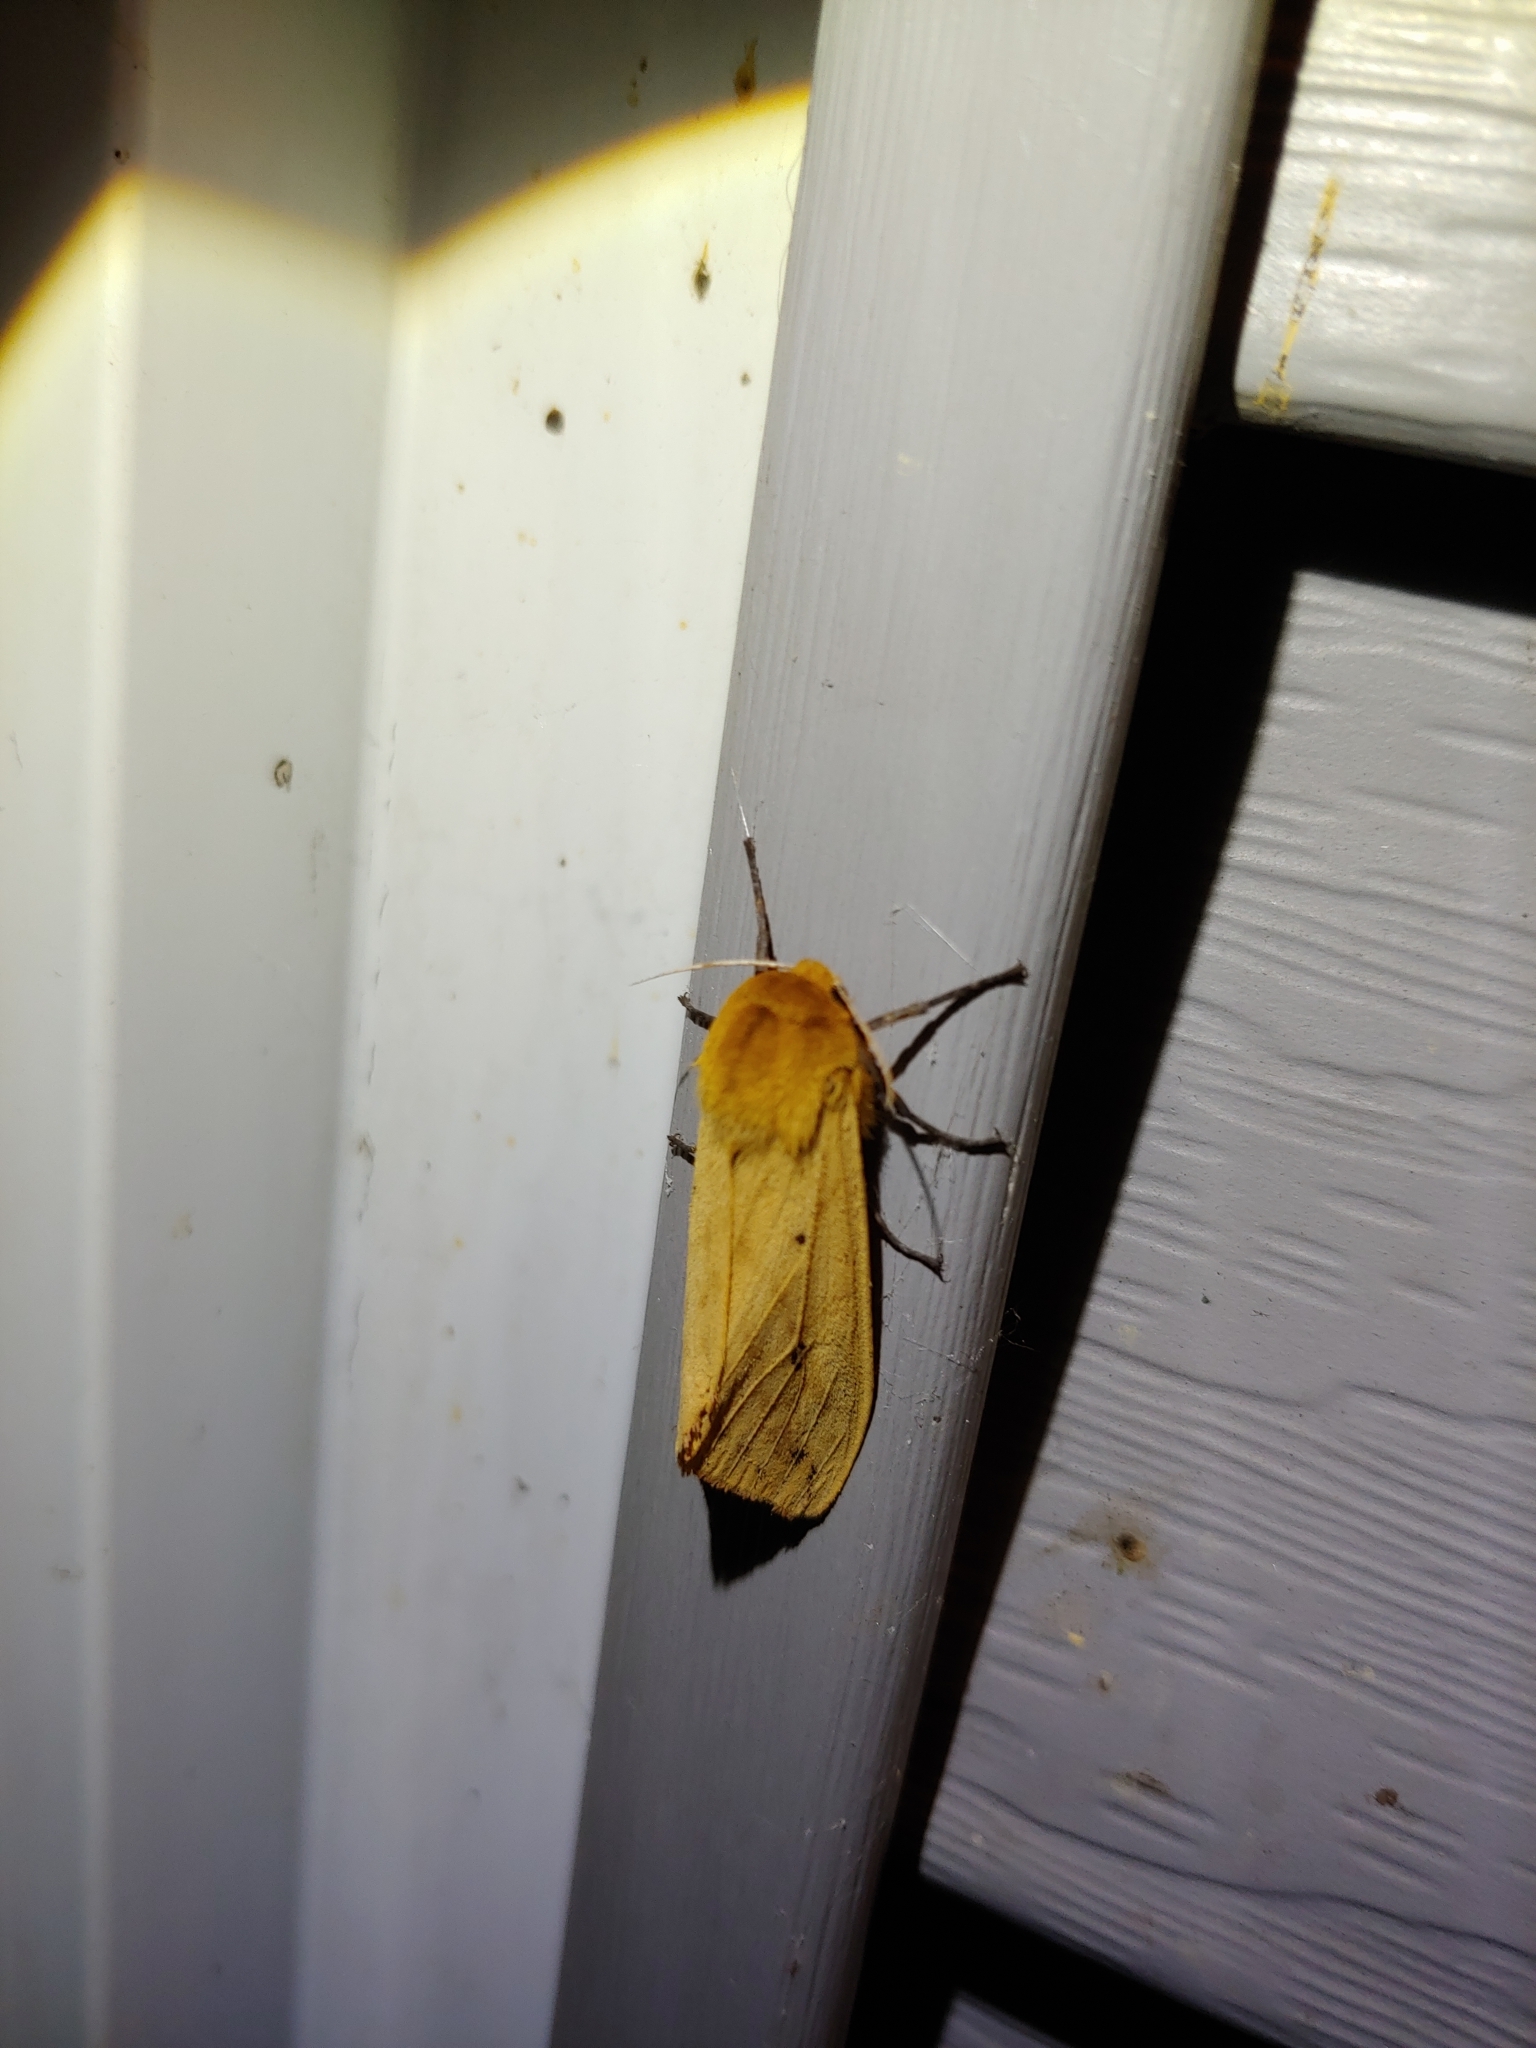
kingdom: Animalia
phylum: Arthropoda
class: Insecta
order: Lepidoptera
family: Erebidae
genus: Pyrrharctia
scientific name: Pyrrharctia isabella
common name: Isabella tiger moth
